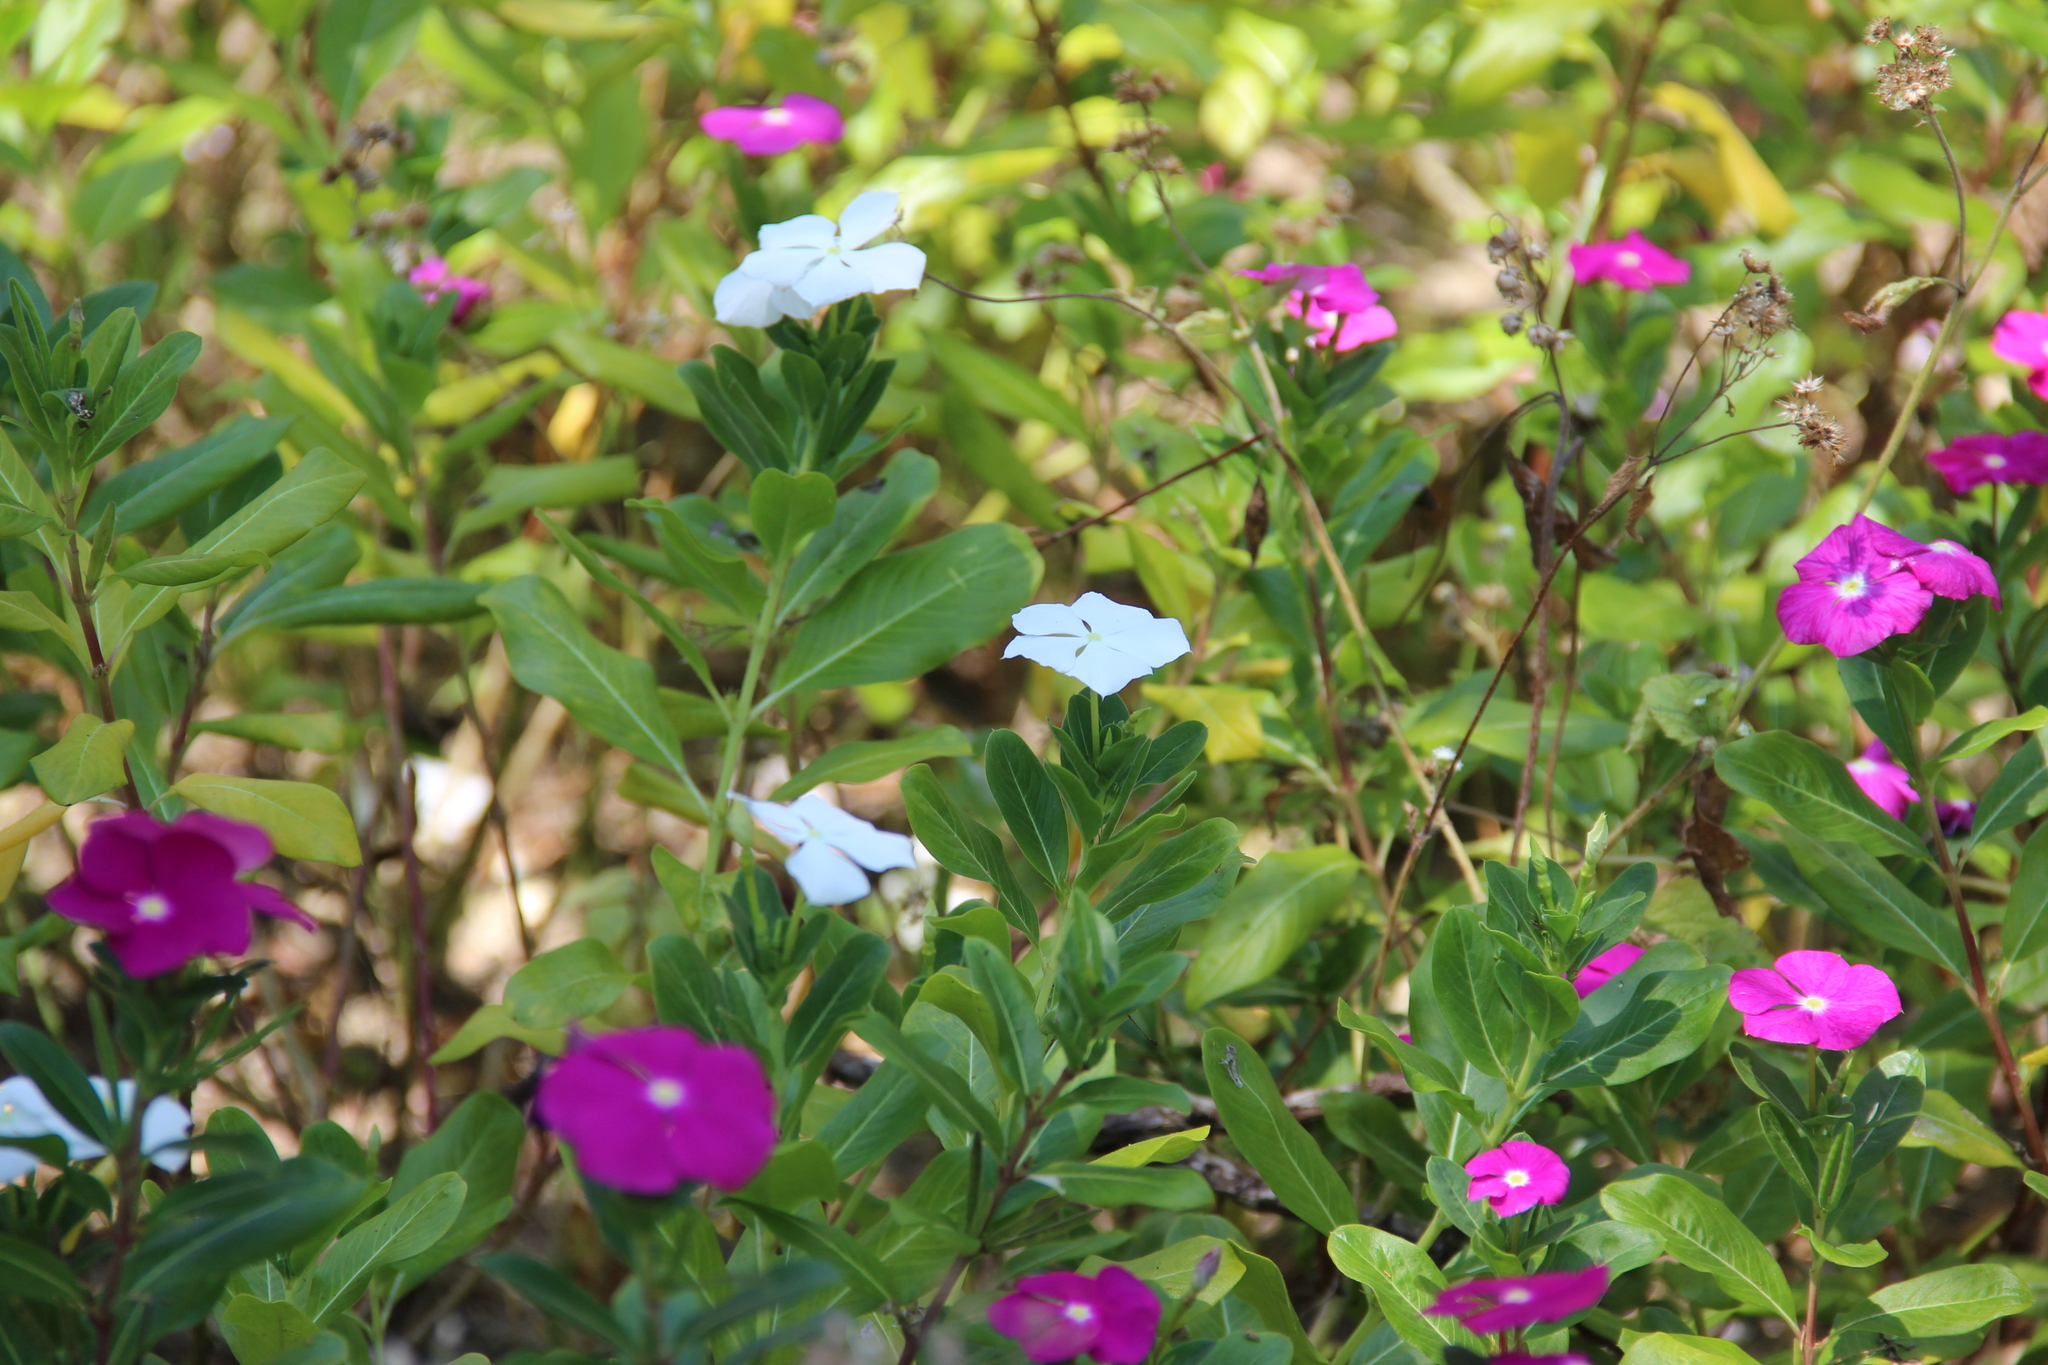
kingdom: Plantae
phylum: Tracheophyta
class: Magnoliopsida
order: Gentianales
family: Apocynaceae
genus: Catharanthus
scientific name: Catharanthus roseus
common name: Madagascar periwinkle
